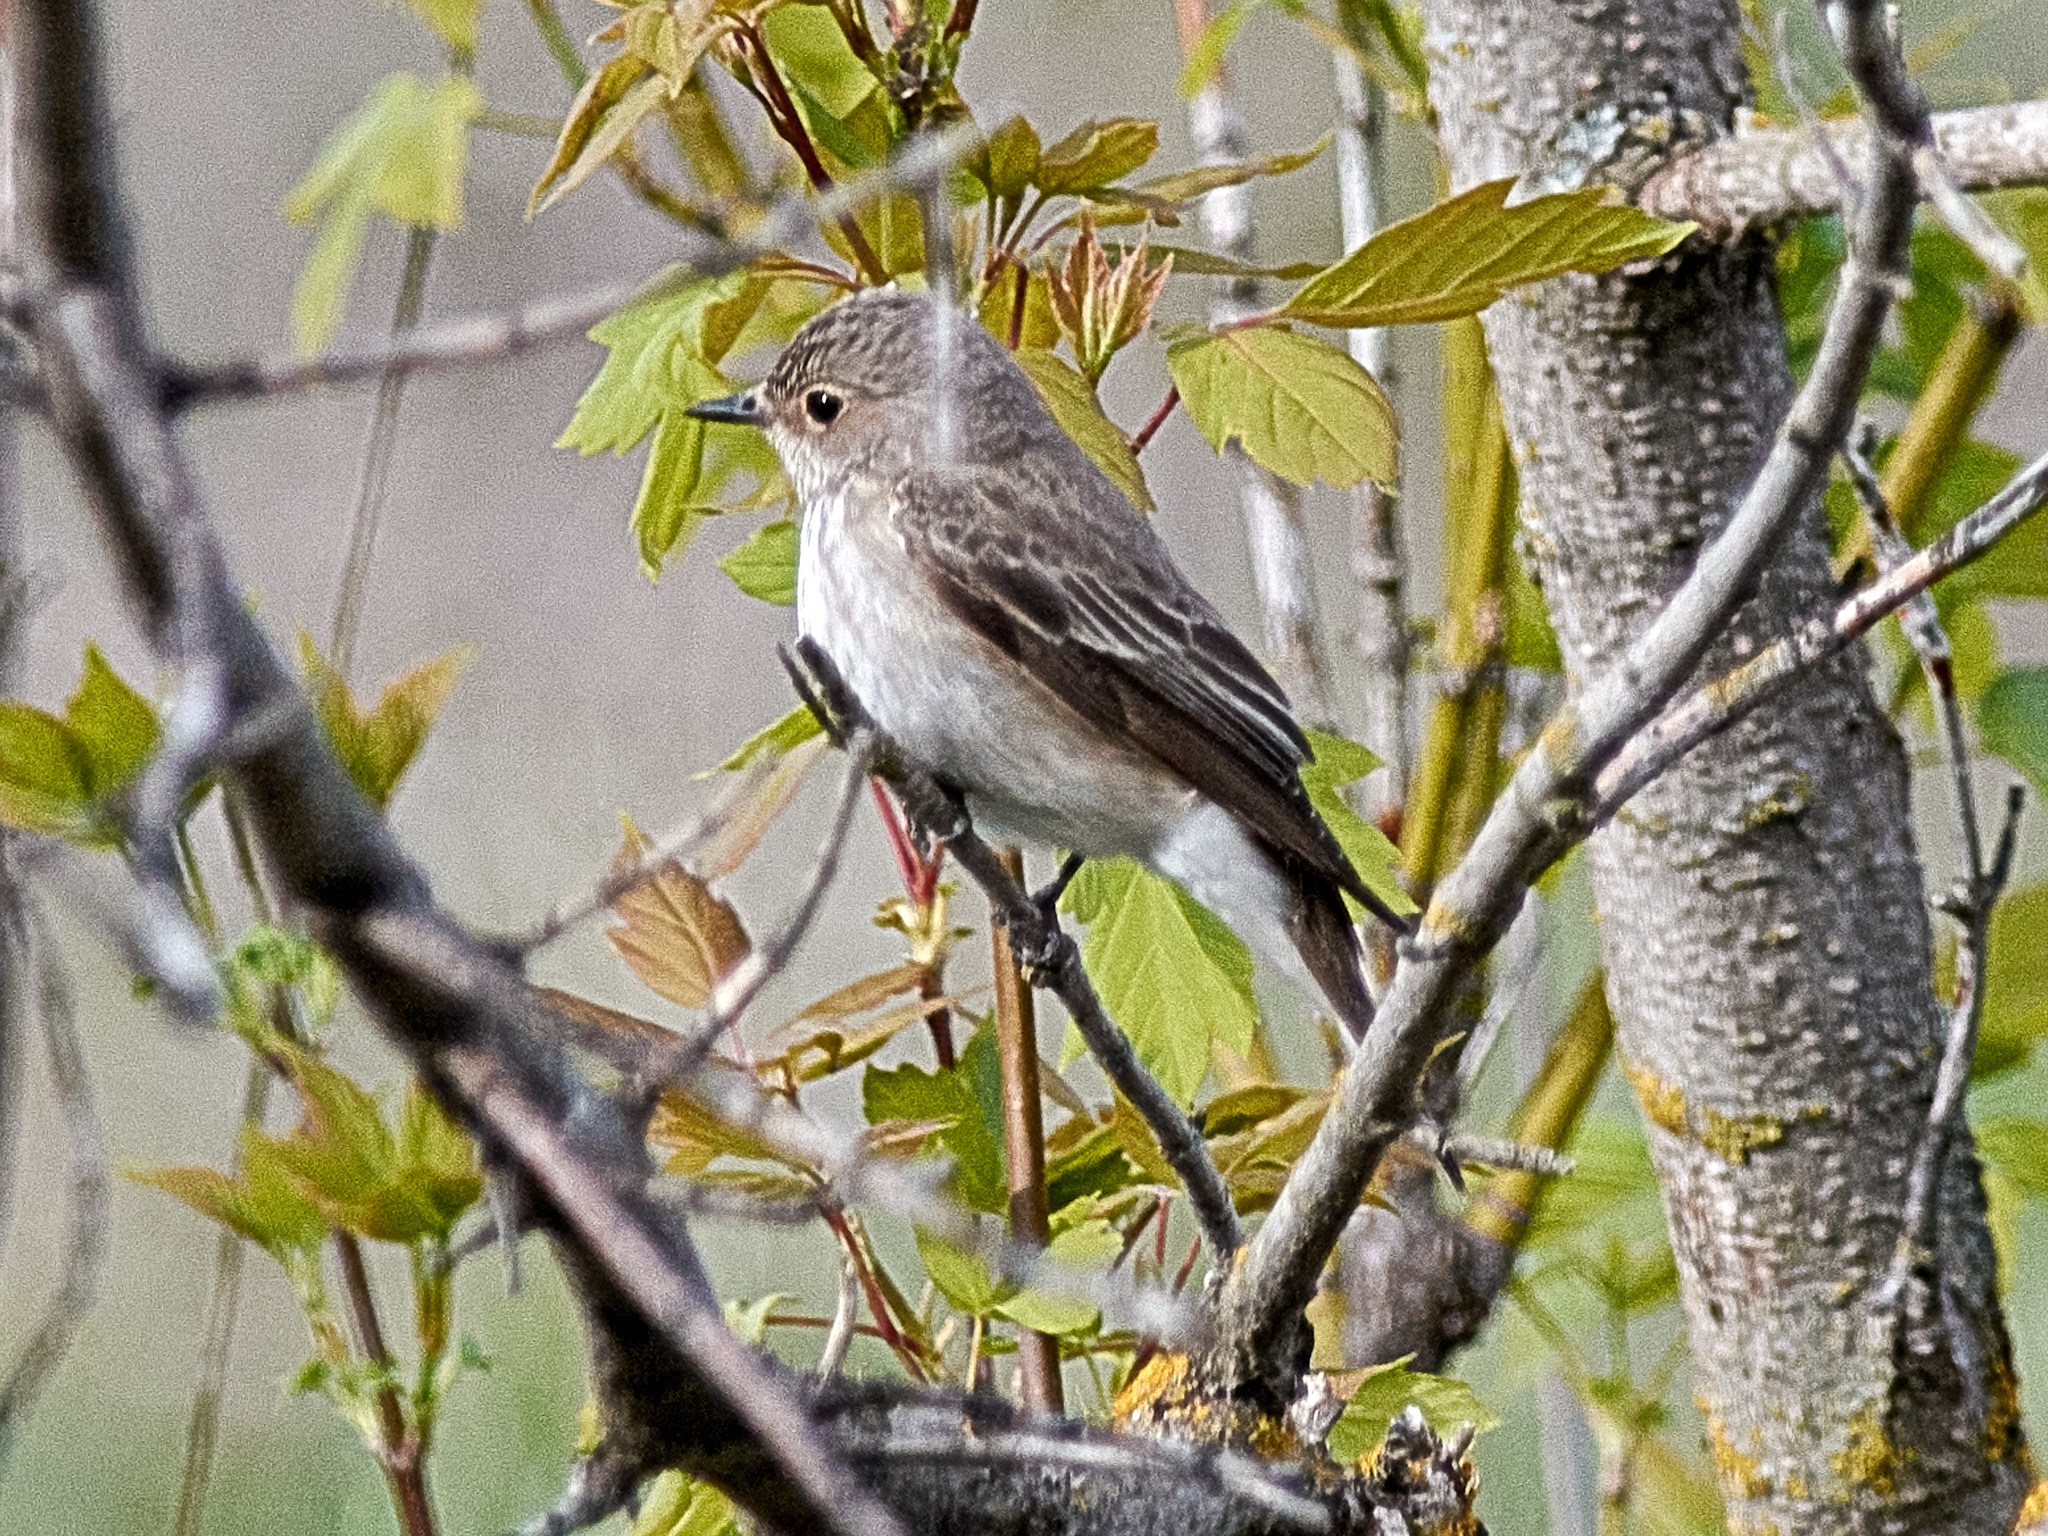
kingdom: Animalia
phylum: Chordata
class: Aves
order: Passeriformes
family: Muscicapidae
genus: Muscicapa
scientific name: Muscicapa striata
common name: Spotted flycatcher
